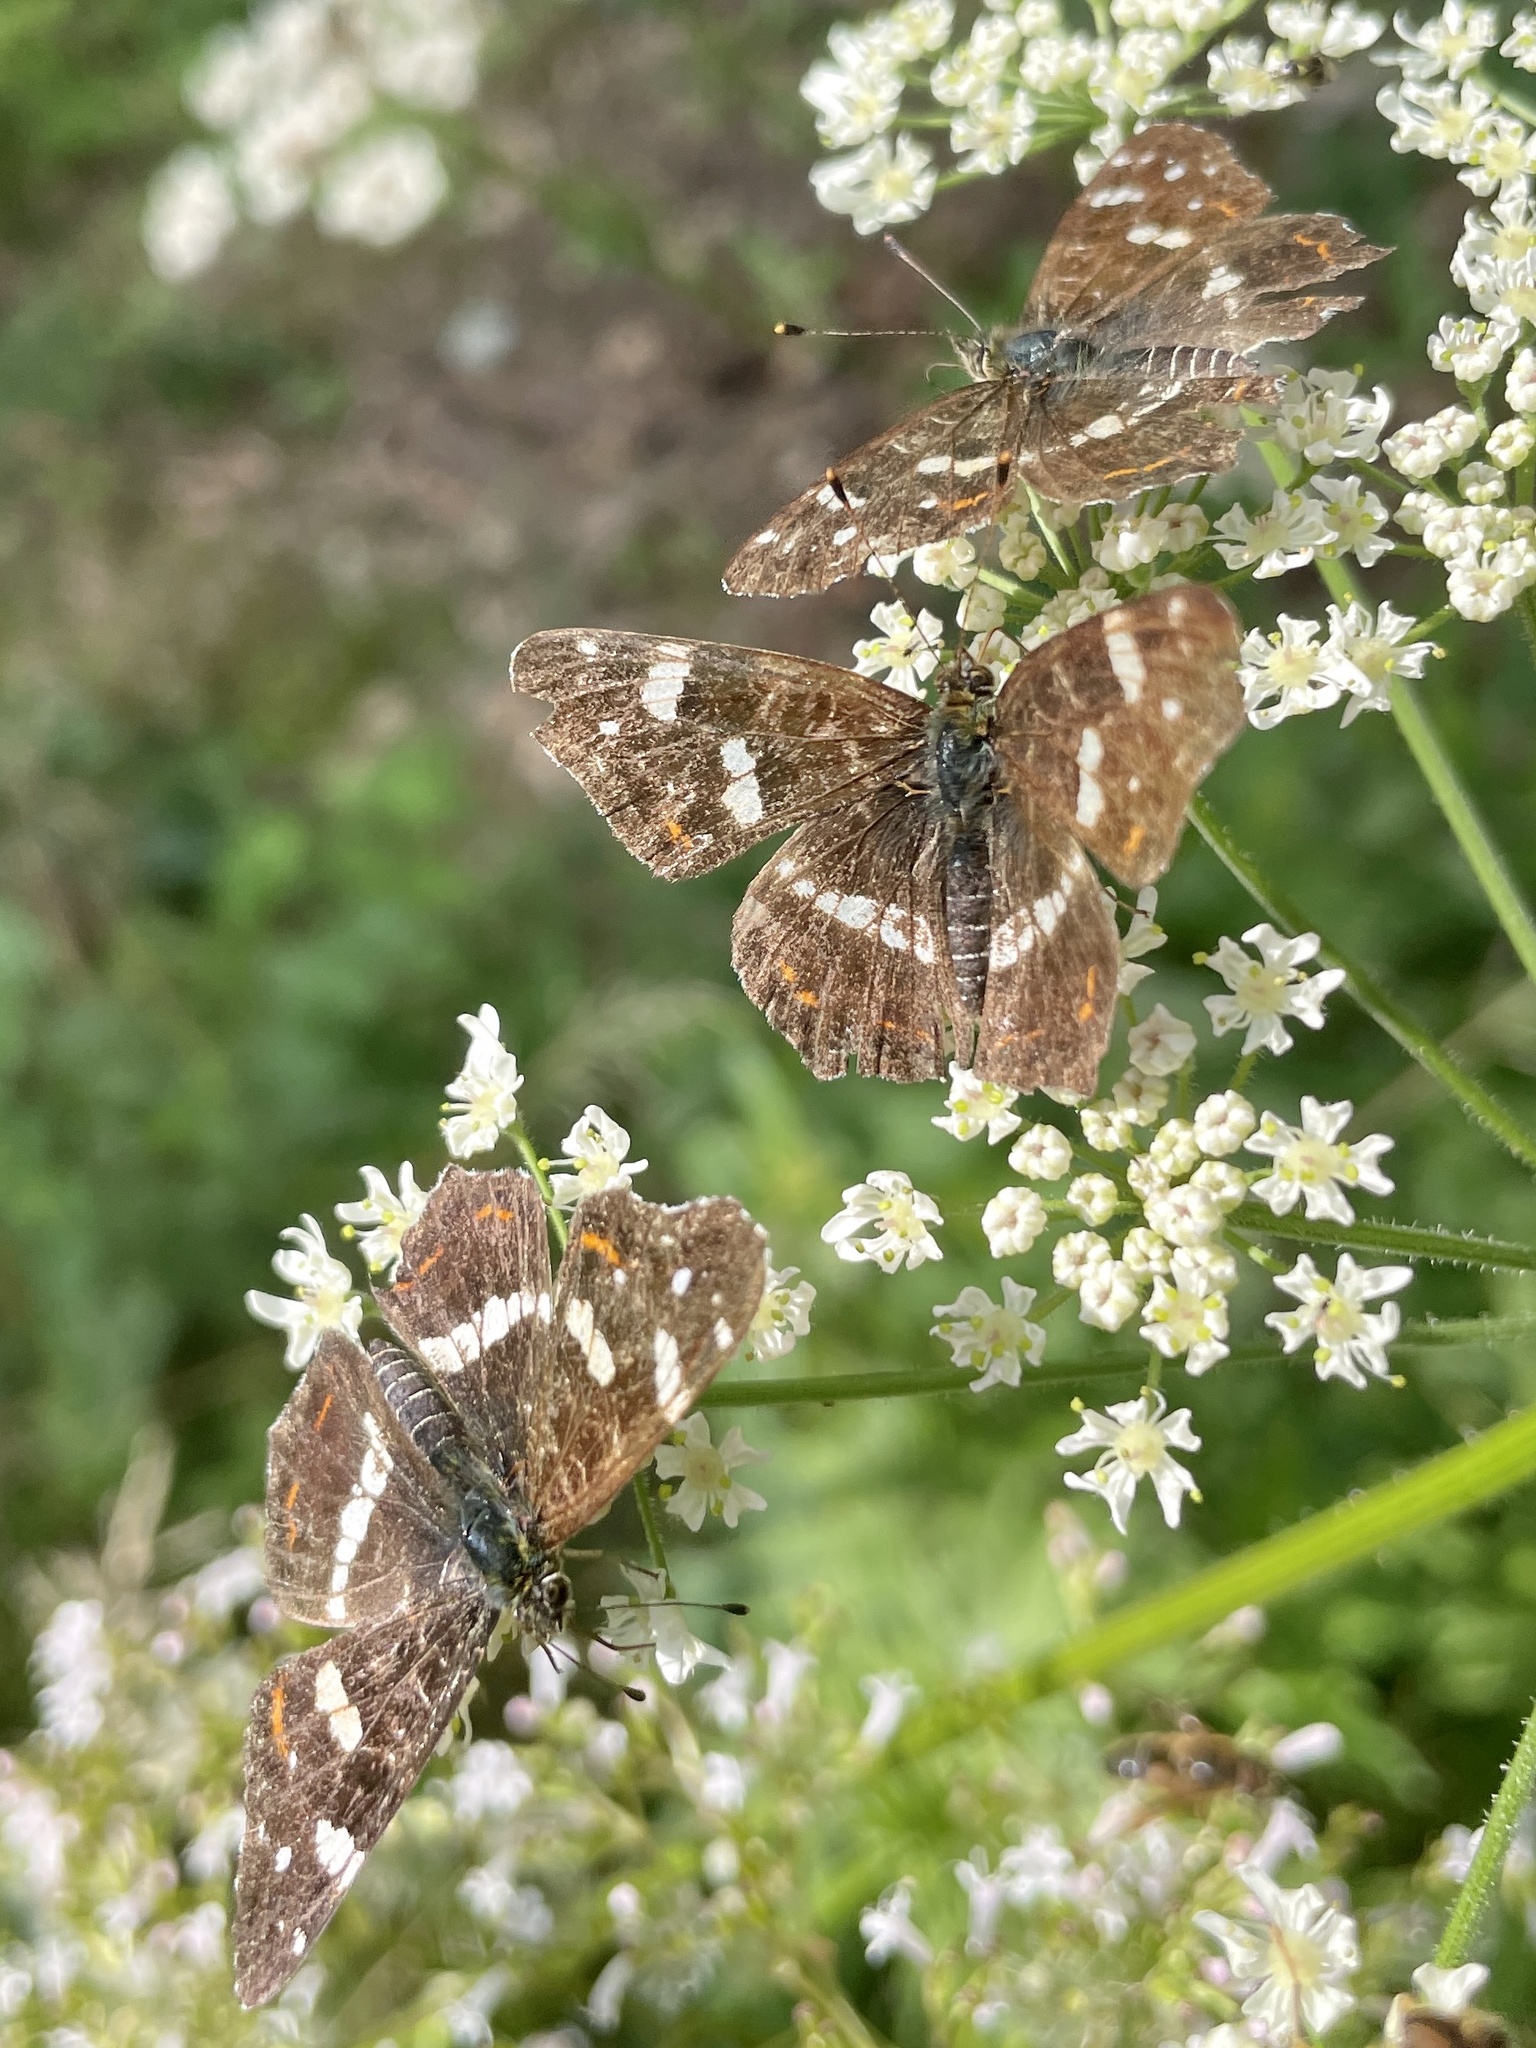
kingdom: Animalia
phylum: Arthropoda
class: Insecta
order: Lepidoptera
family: Nymphalidae
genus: Araschnia
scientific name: Araschnia levana
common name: Map butterfly
